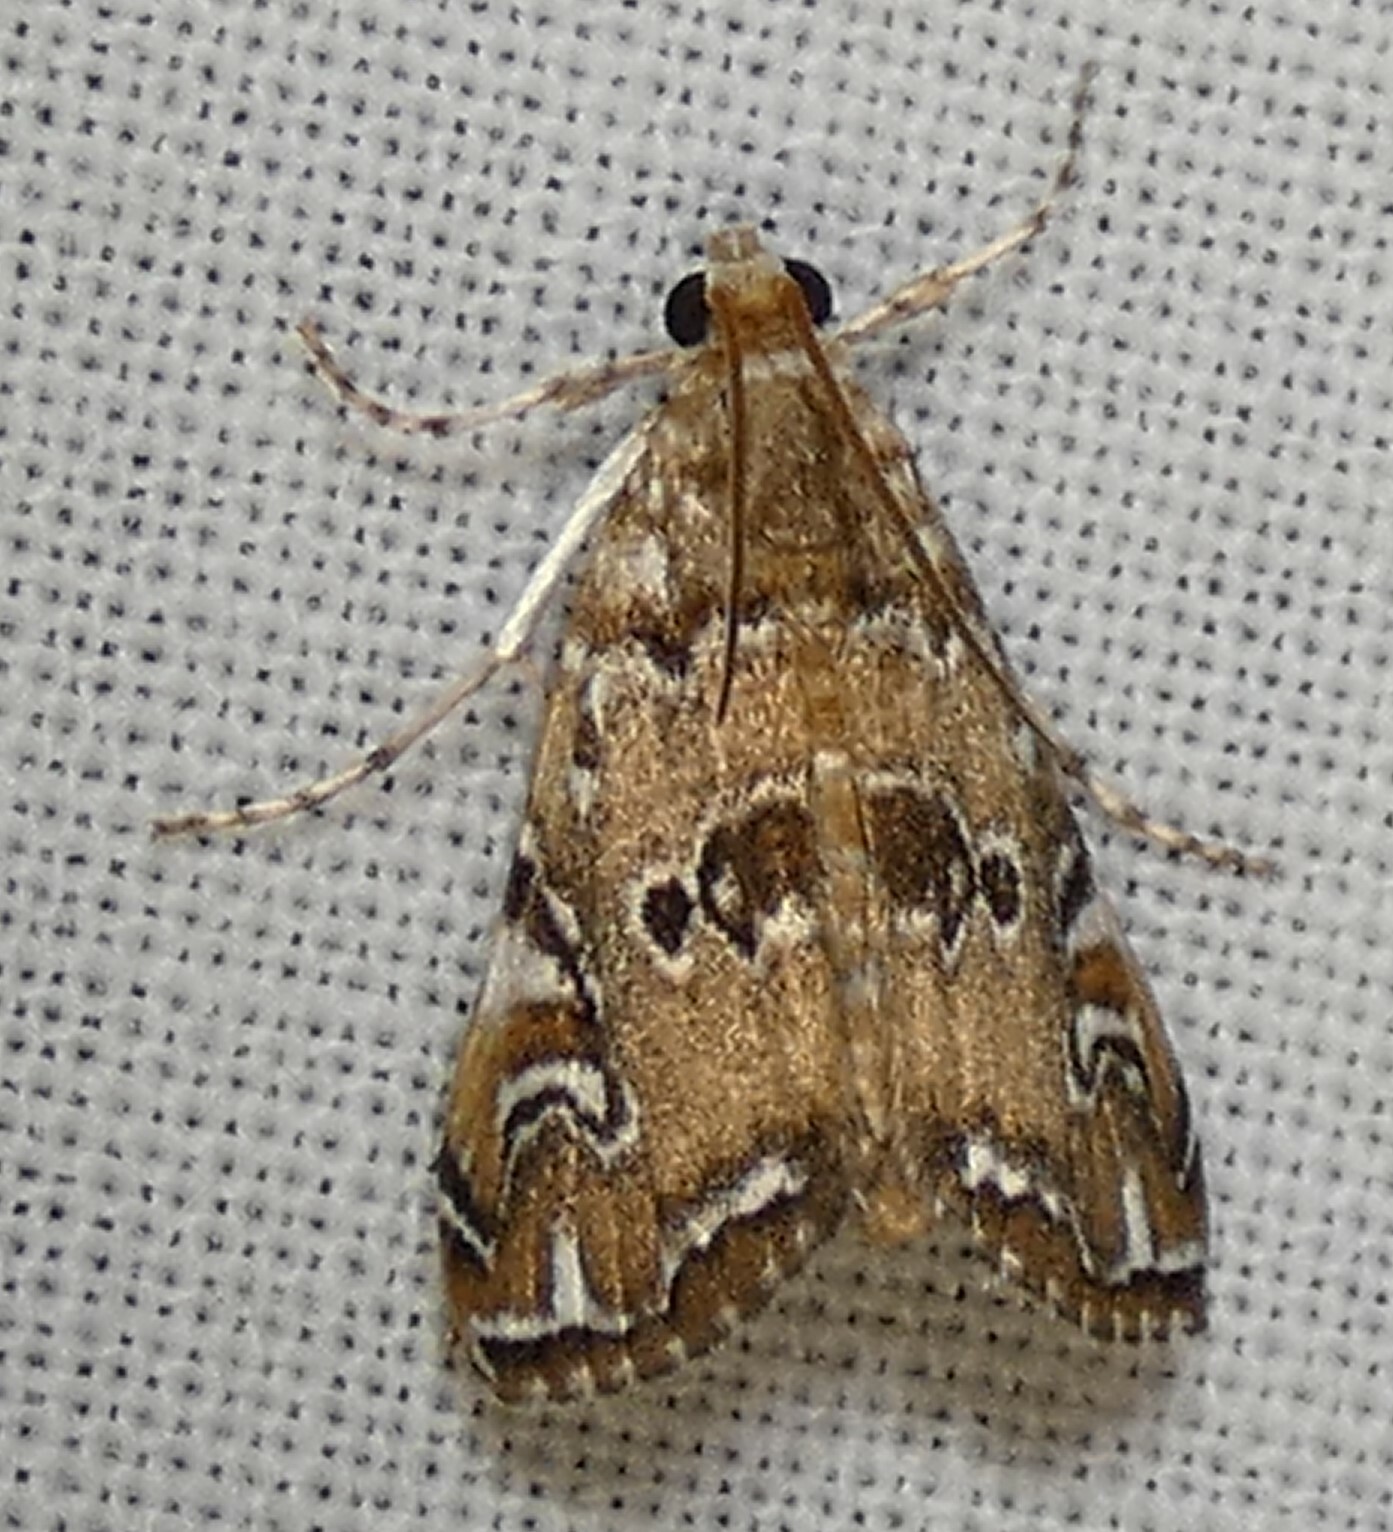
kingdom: Animalia
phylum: Arthropoda
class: Insecta
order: Lepidoptera
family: Crambidae
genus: Elophila
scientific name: Elophila gyralis
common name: Waterlily borer moth
